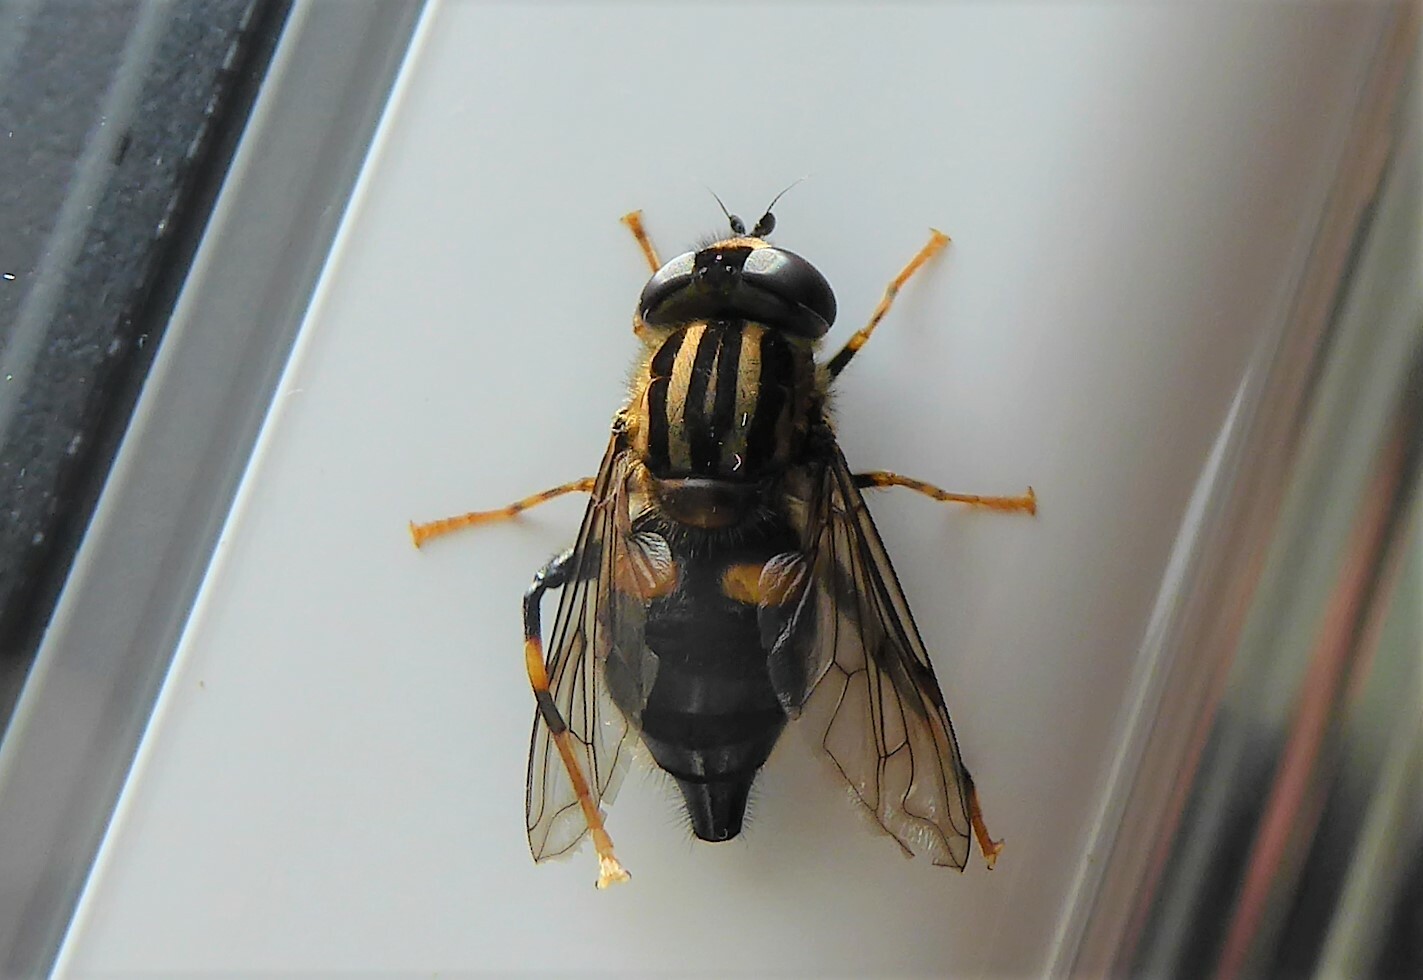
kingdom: Animalia
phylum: Arthropoda
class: Insecta
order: Diptera
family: Syrphidae
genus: Helophilus
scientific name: Helophilus antipodus
